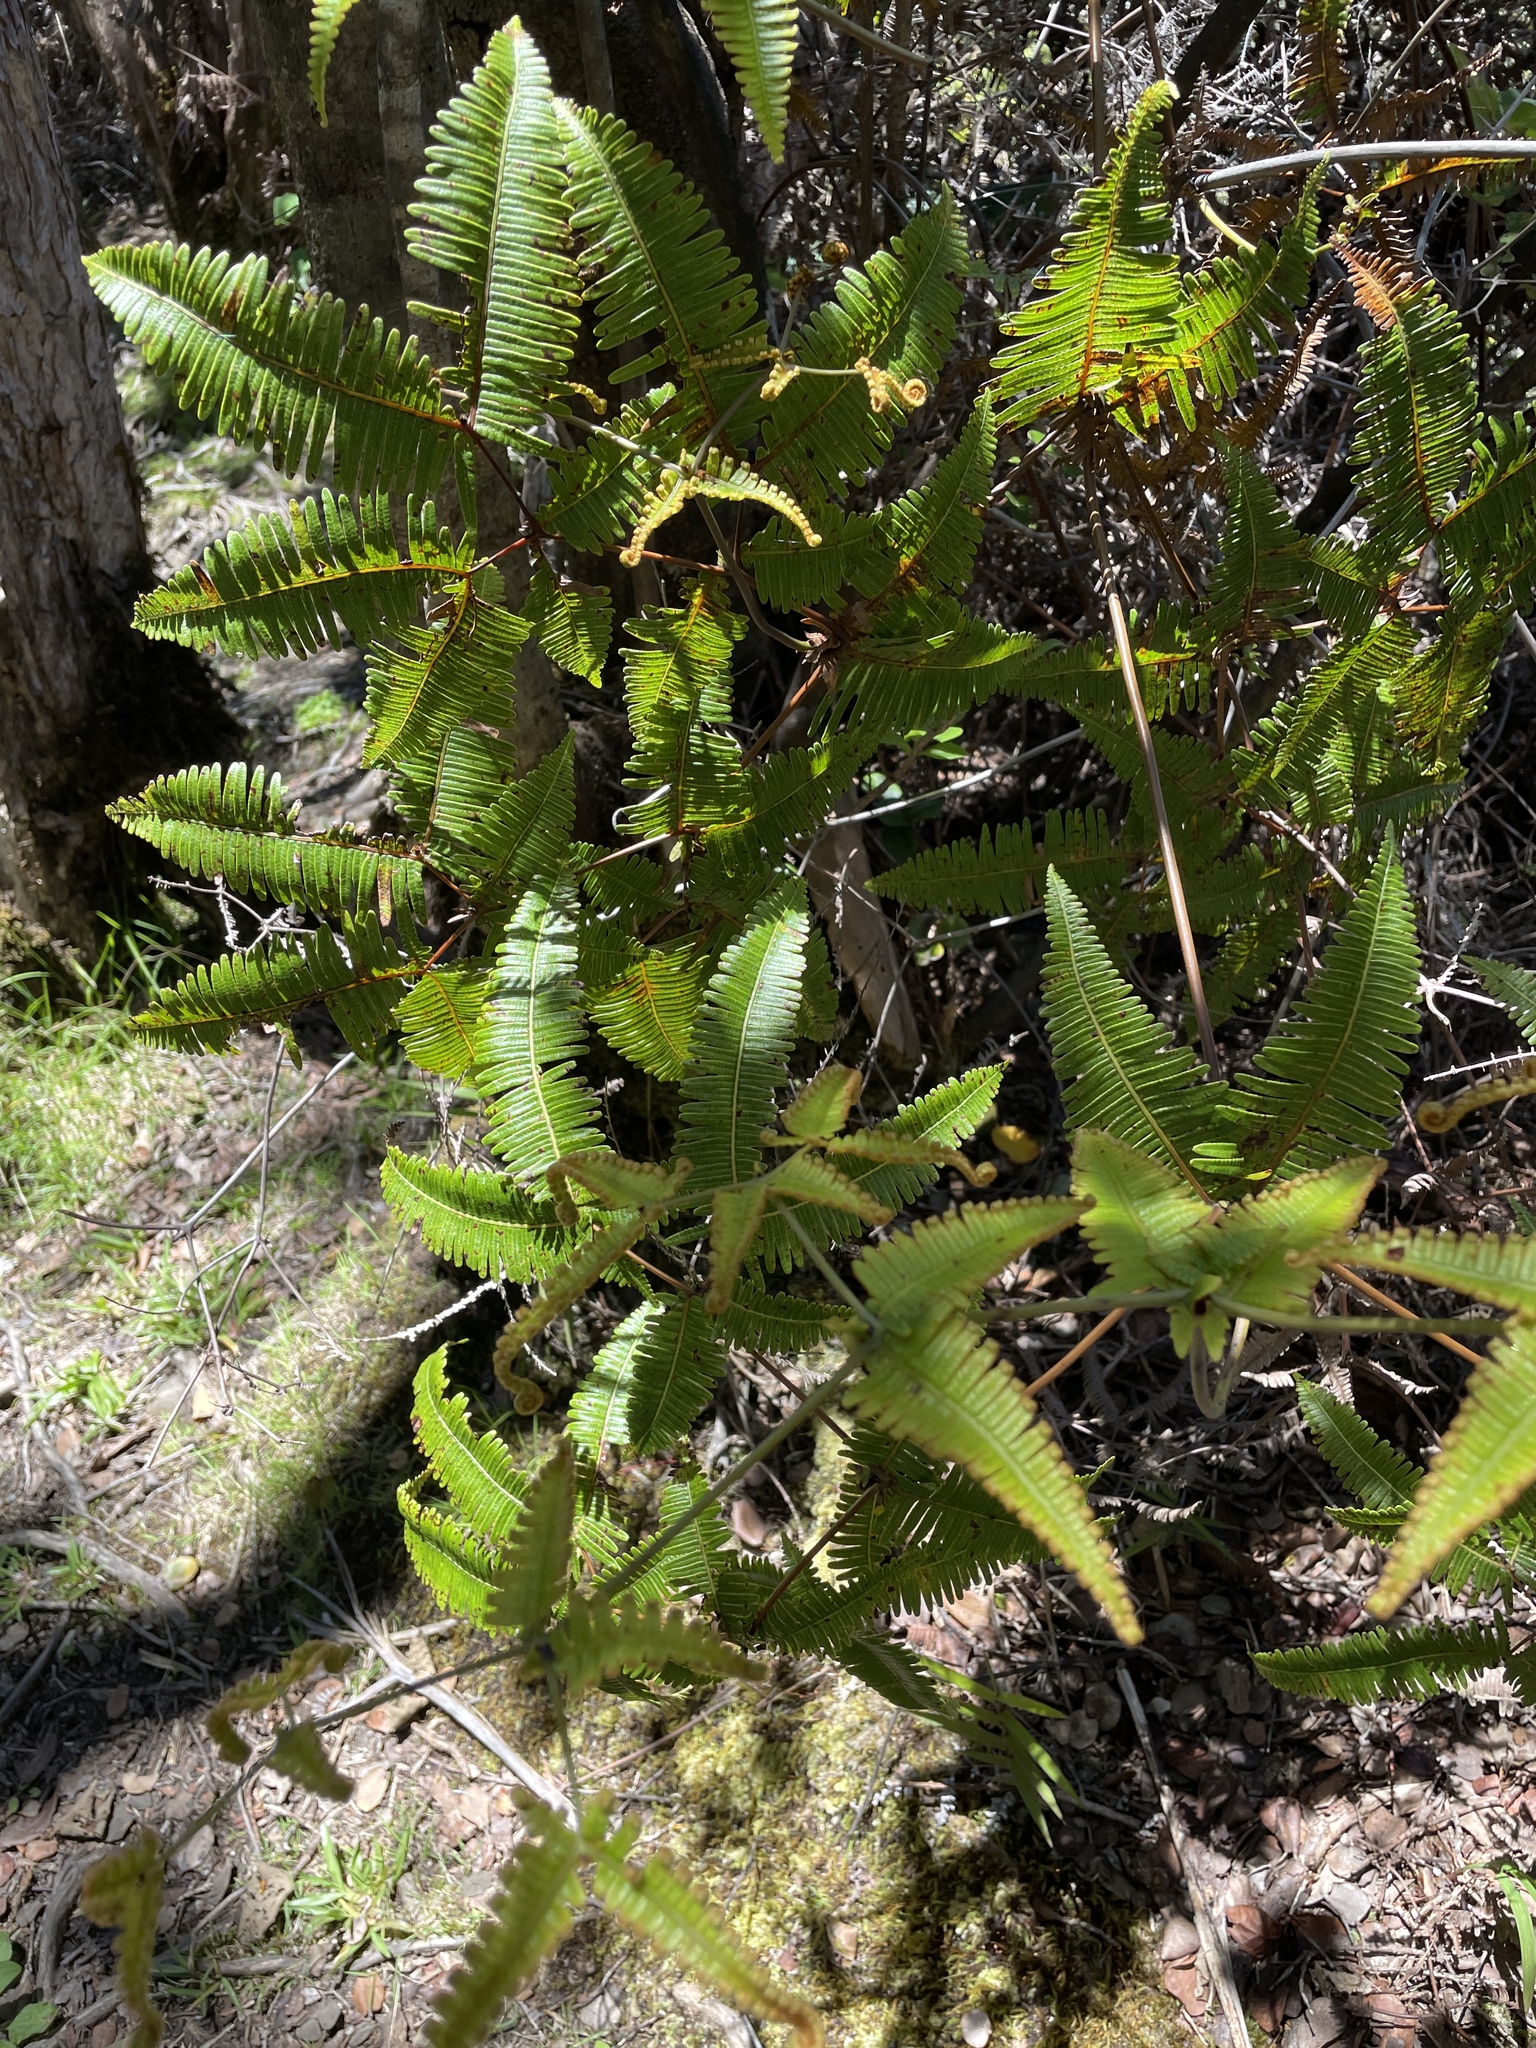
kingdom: Plantae
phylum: Tracheophyta
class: Polypodiopsida
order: Gleicheniales
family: Gleicheniaceae
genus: Dicranopteris
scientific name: Dicranopteris linearis
